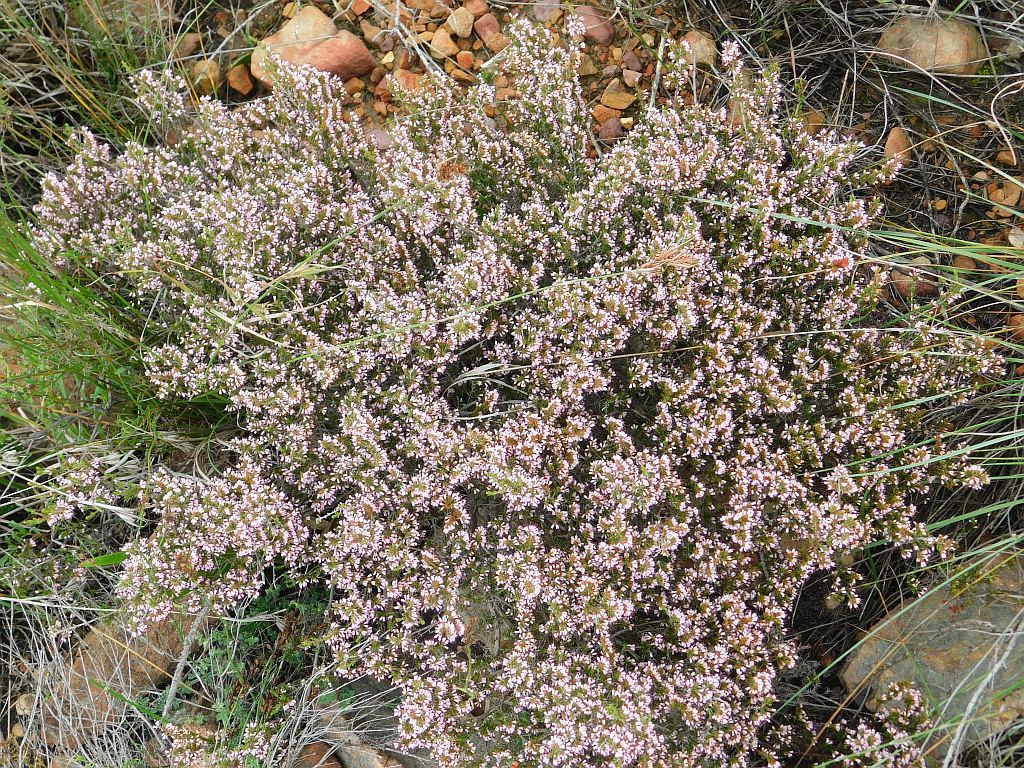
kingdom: Plantae
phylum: Tracheophyta
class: Magnoliopsida
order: Ericales
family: Ericaceae
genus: Erica
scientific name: Erica ericoides
